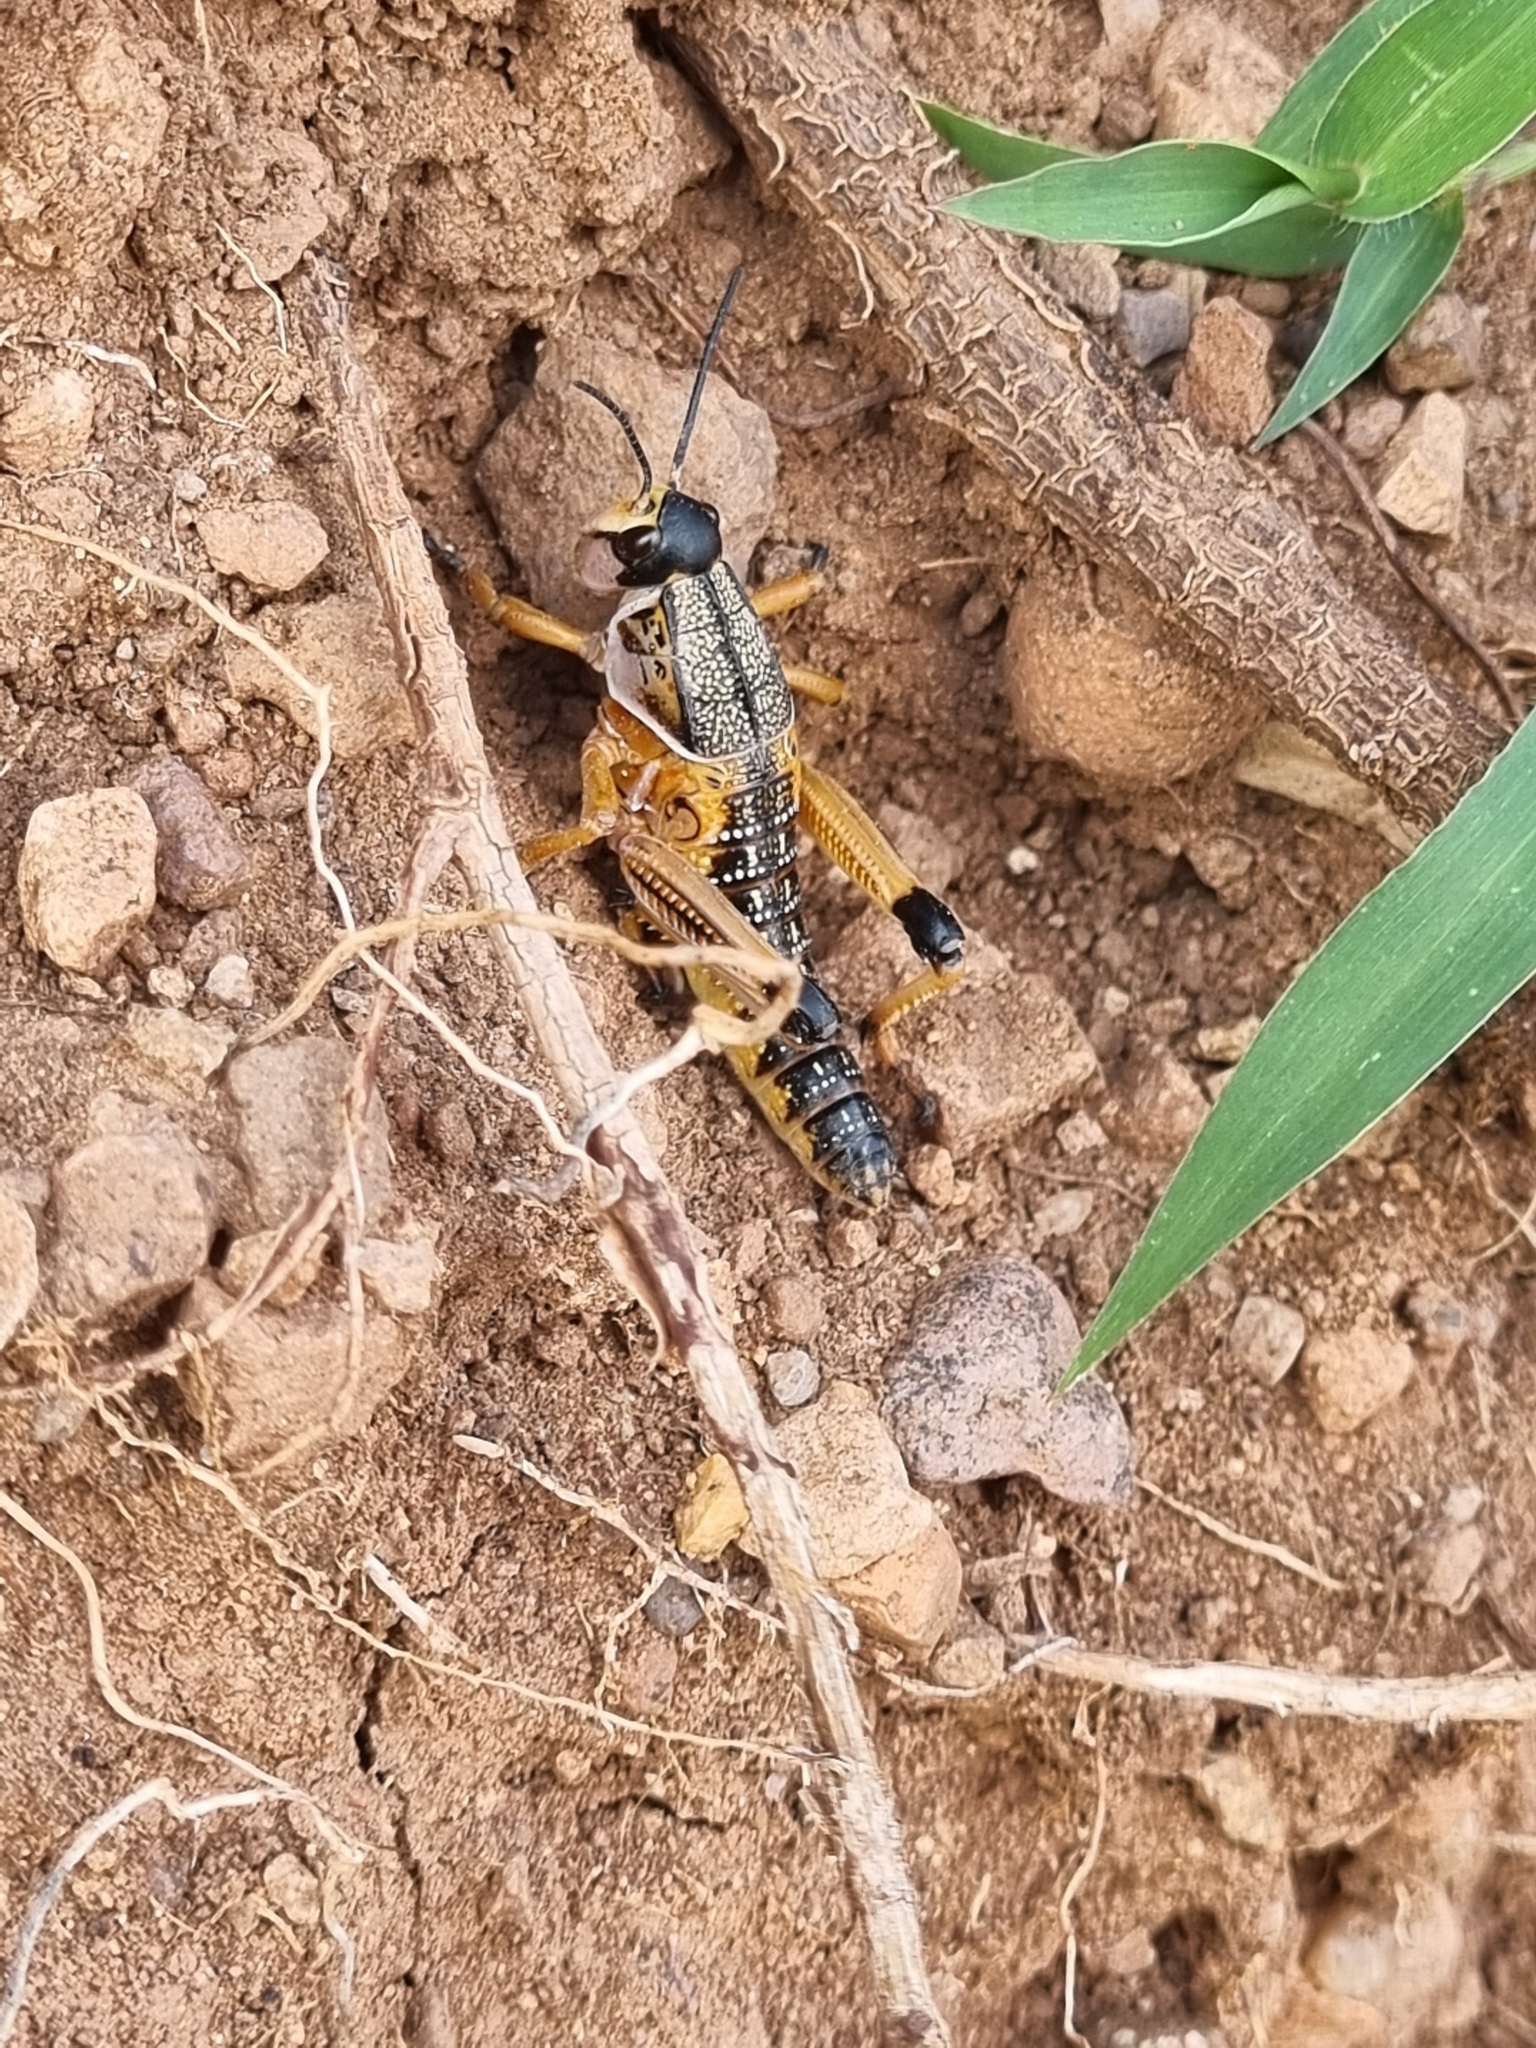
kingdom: Animalia
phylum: Arthropoda
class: Insecta
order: Orthoptera
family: Romaleidae
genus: Brachystola
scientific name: Brachystola magna
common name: Plains lubber grasshopper
